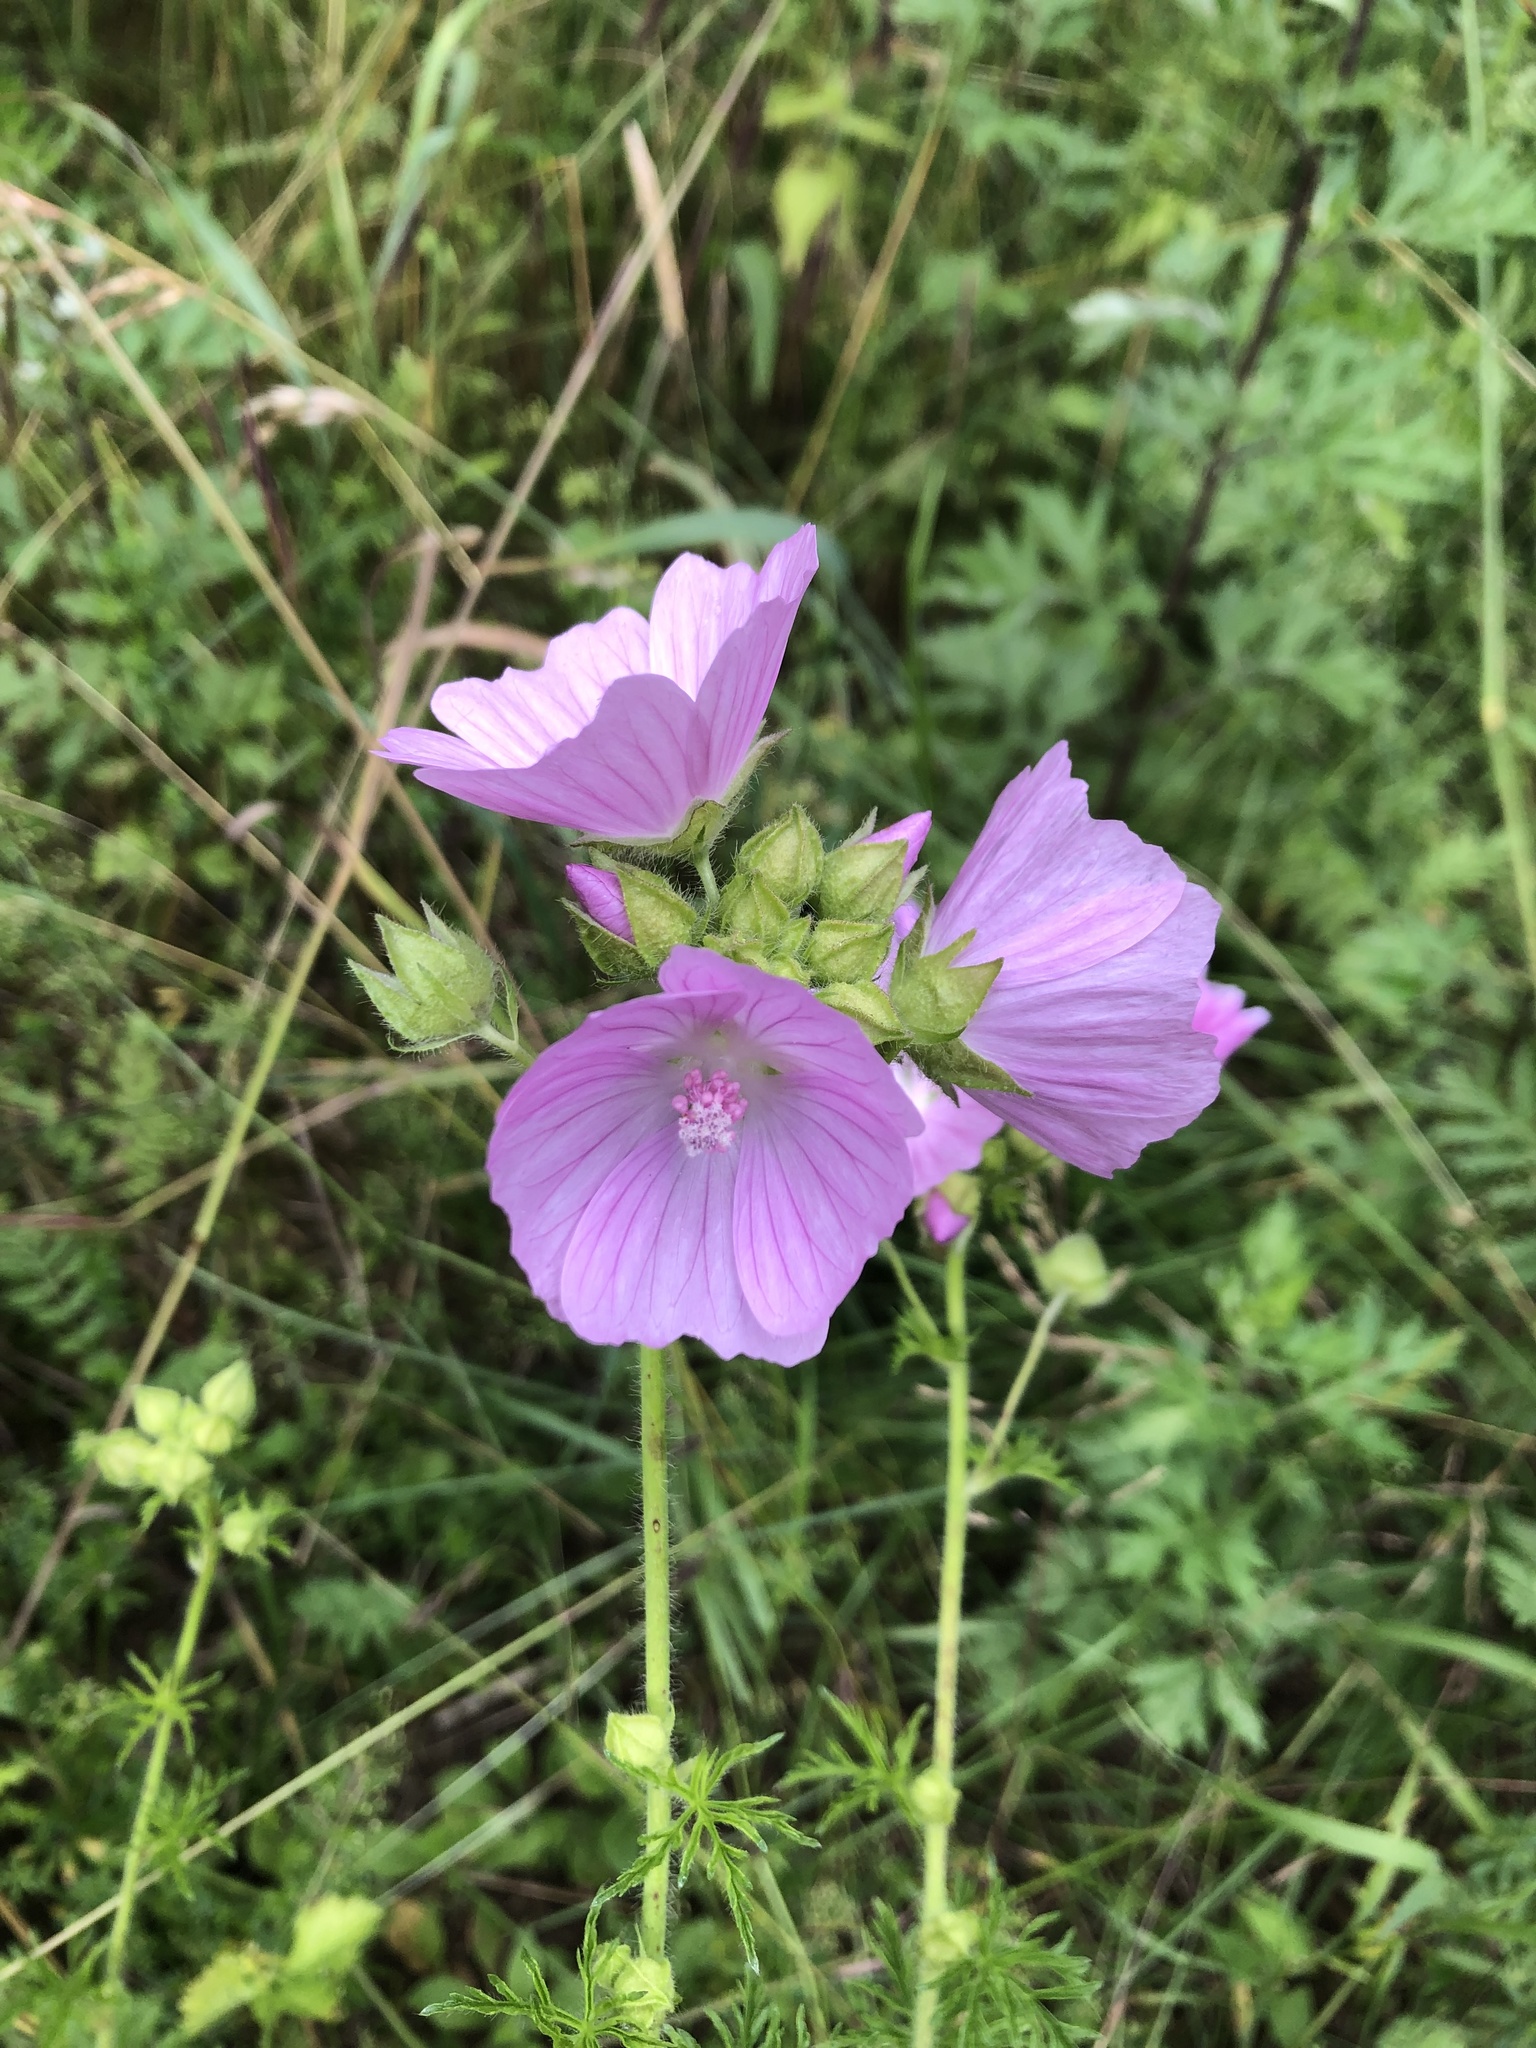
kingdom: Plantae
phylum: Tracheophyta
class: Magnoliopsida
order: Malvales
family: Malvaceae
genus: Malva
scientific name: Malva moschata
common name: Musk mallow
